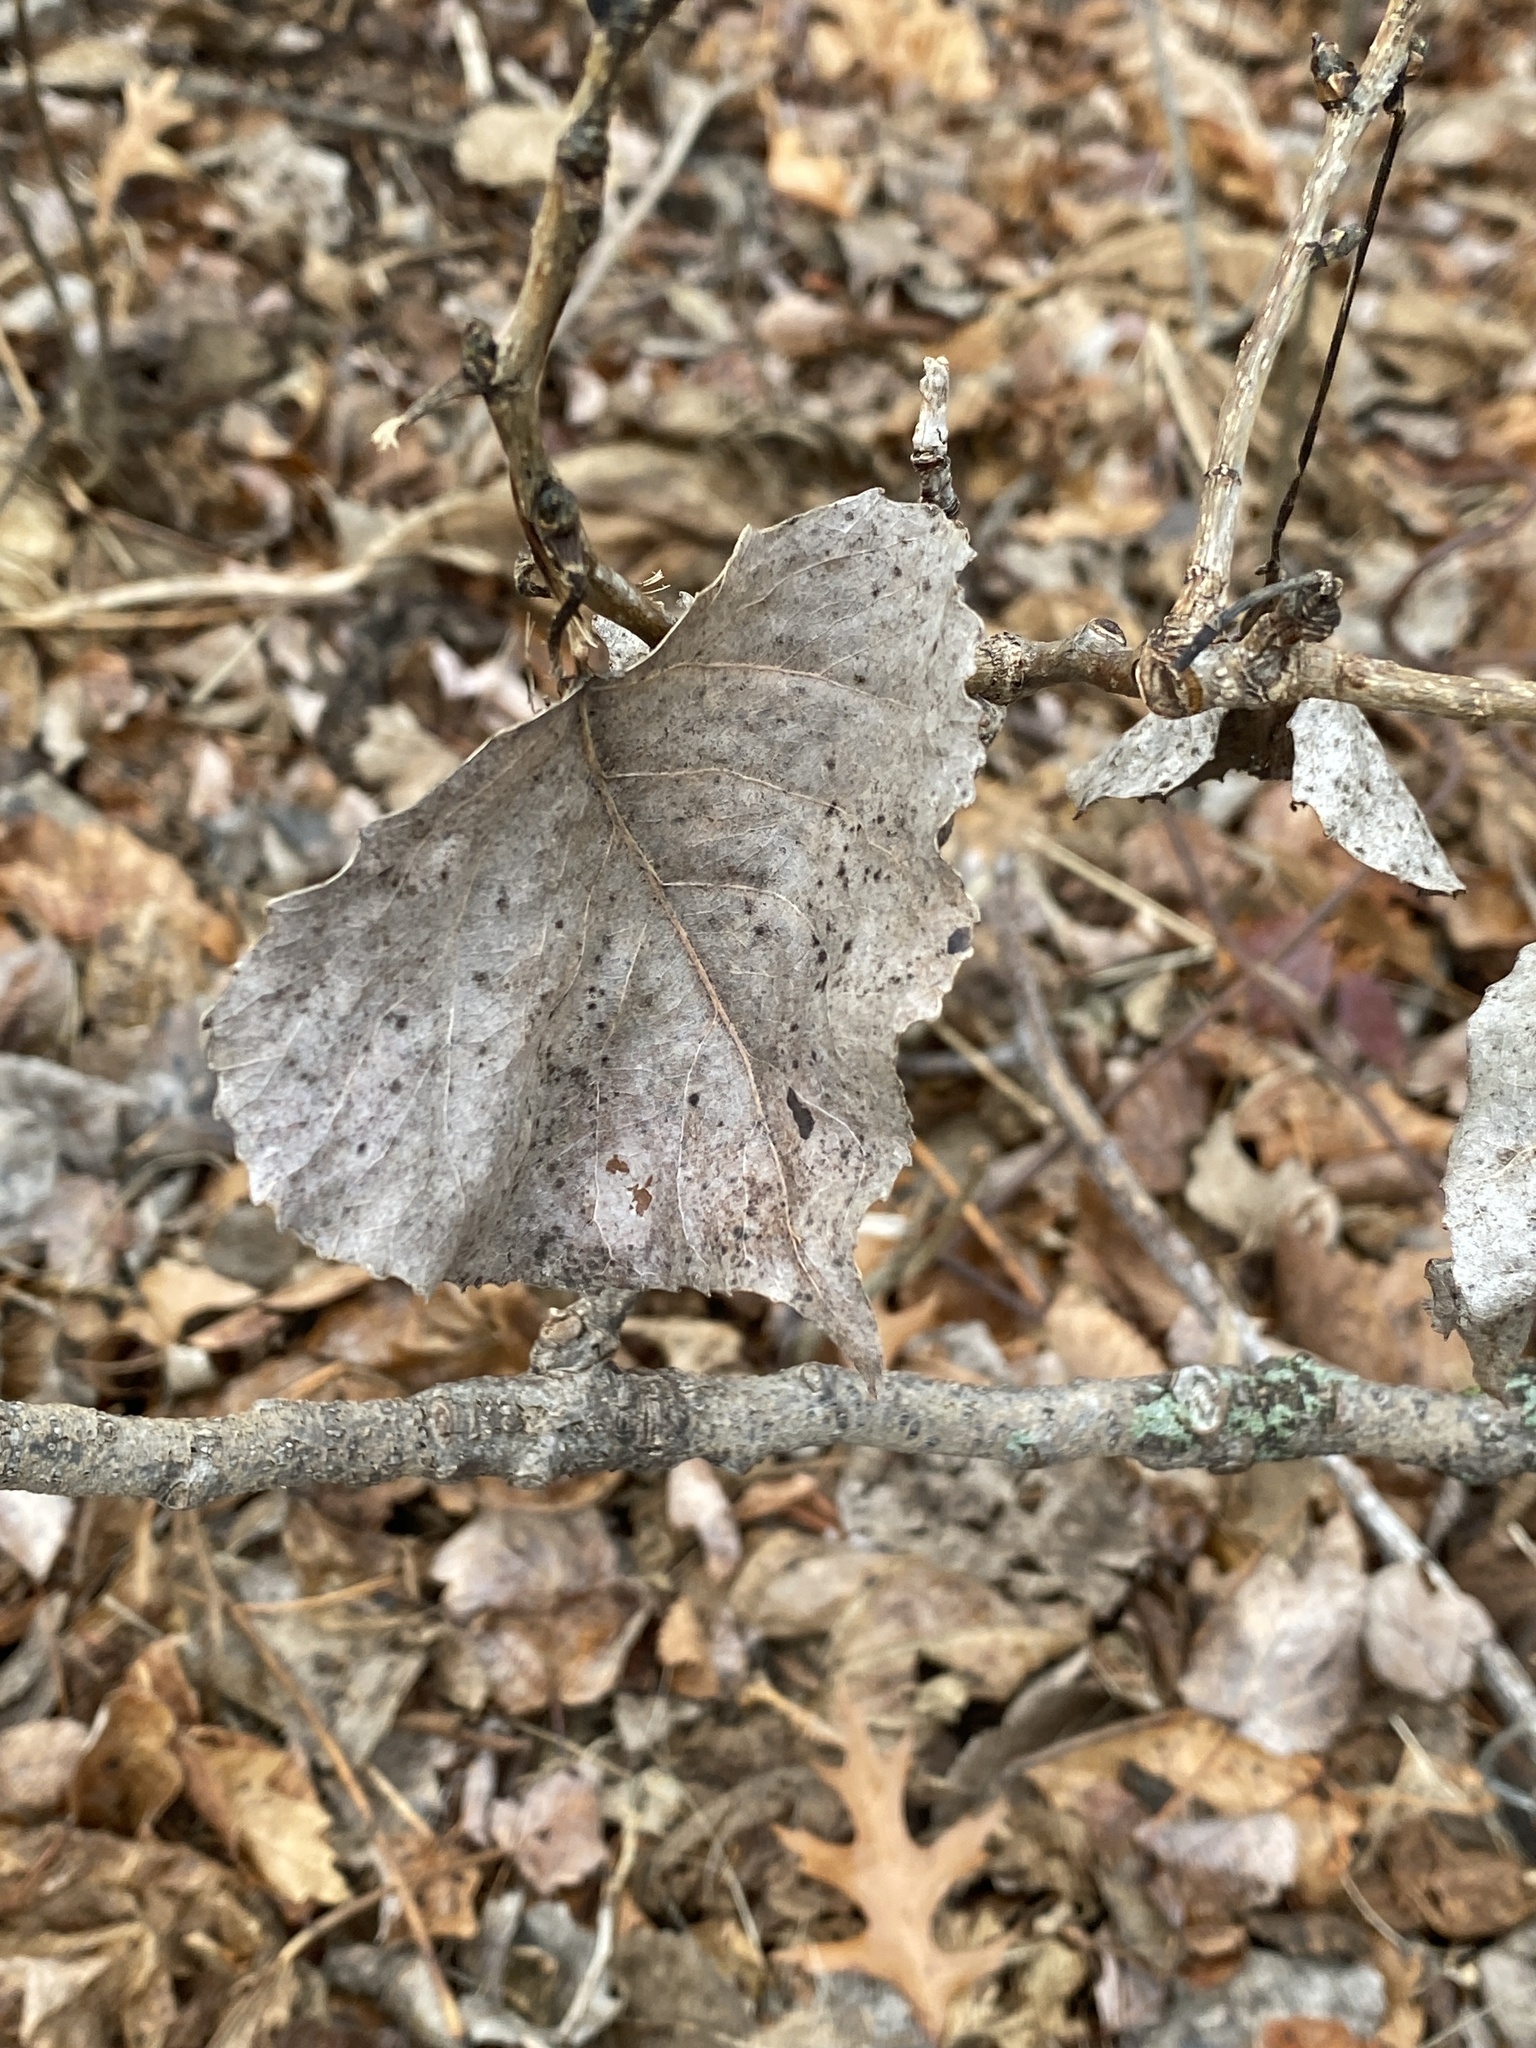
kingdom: Plantae
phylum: Tracheophyta
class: Magnoliopsida
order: Malpighiales
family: Salicaceae
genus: Populus
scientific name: Populus deltoides
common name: Eastern cottonwood
